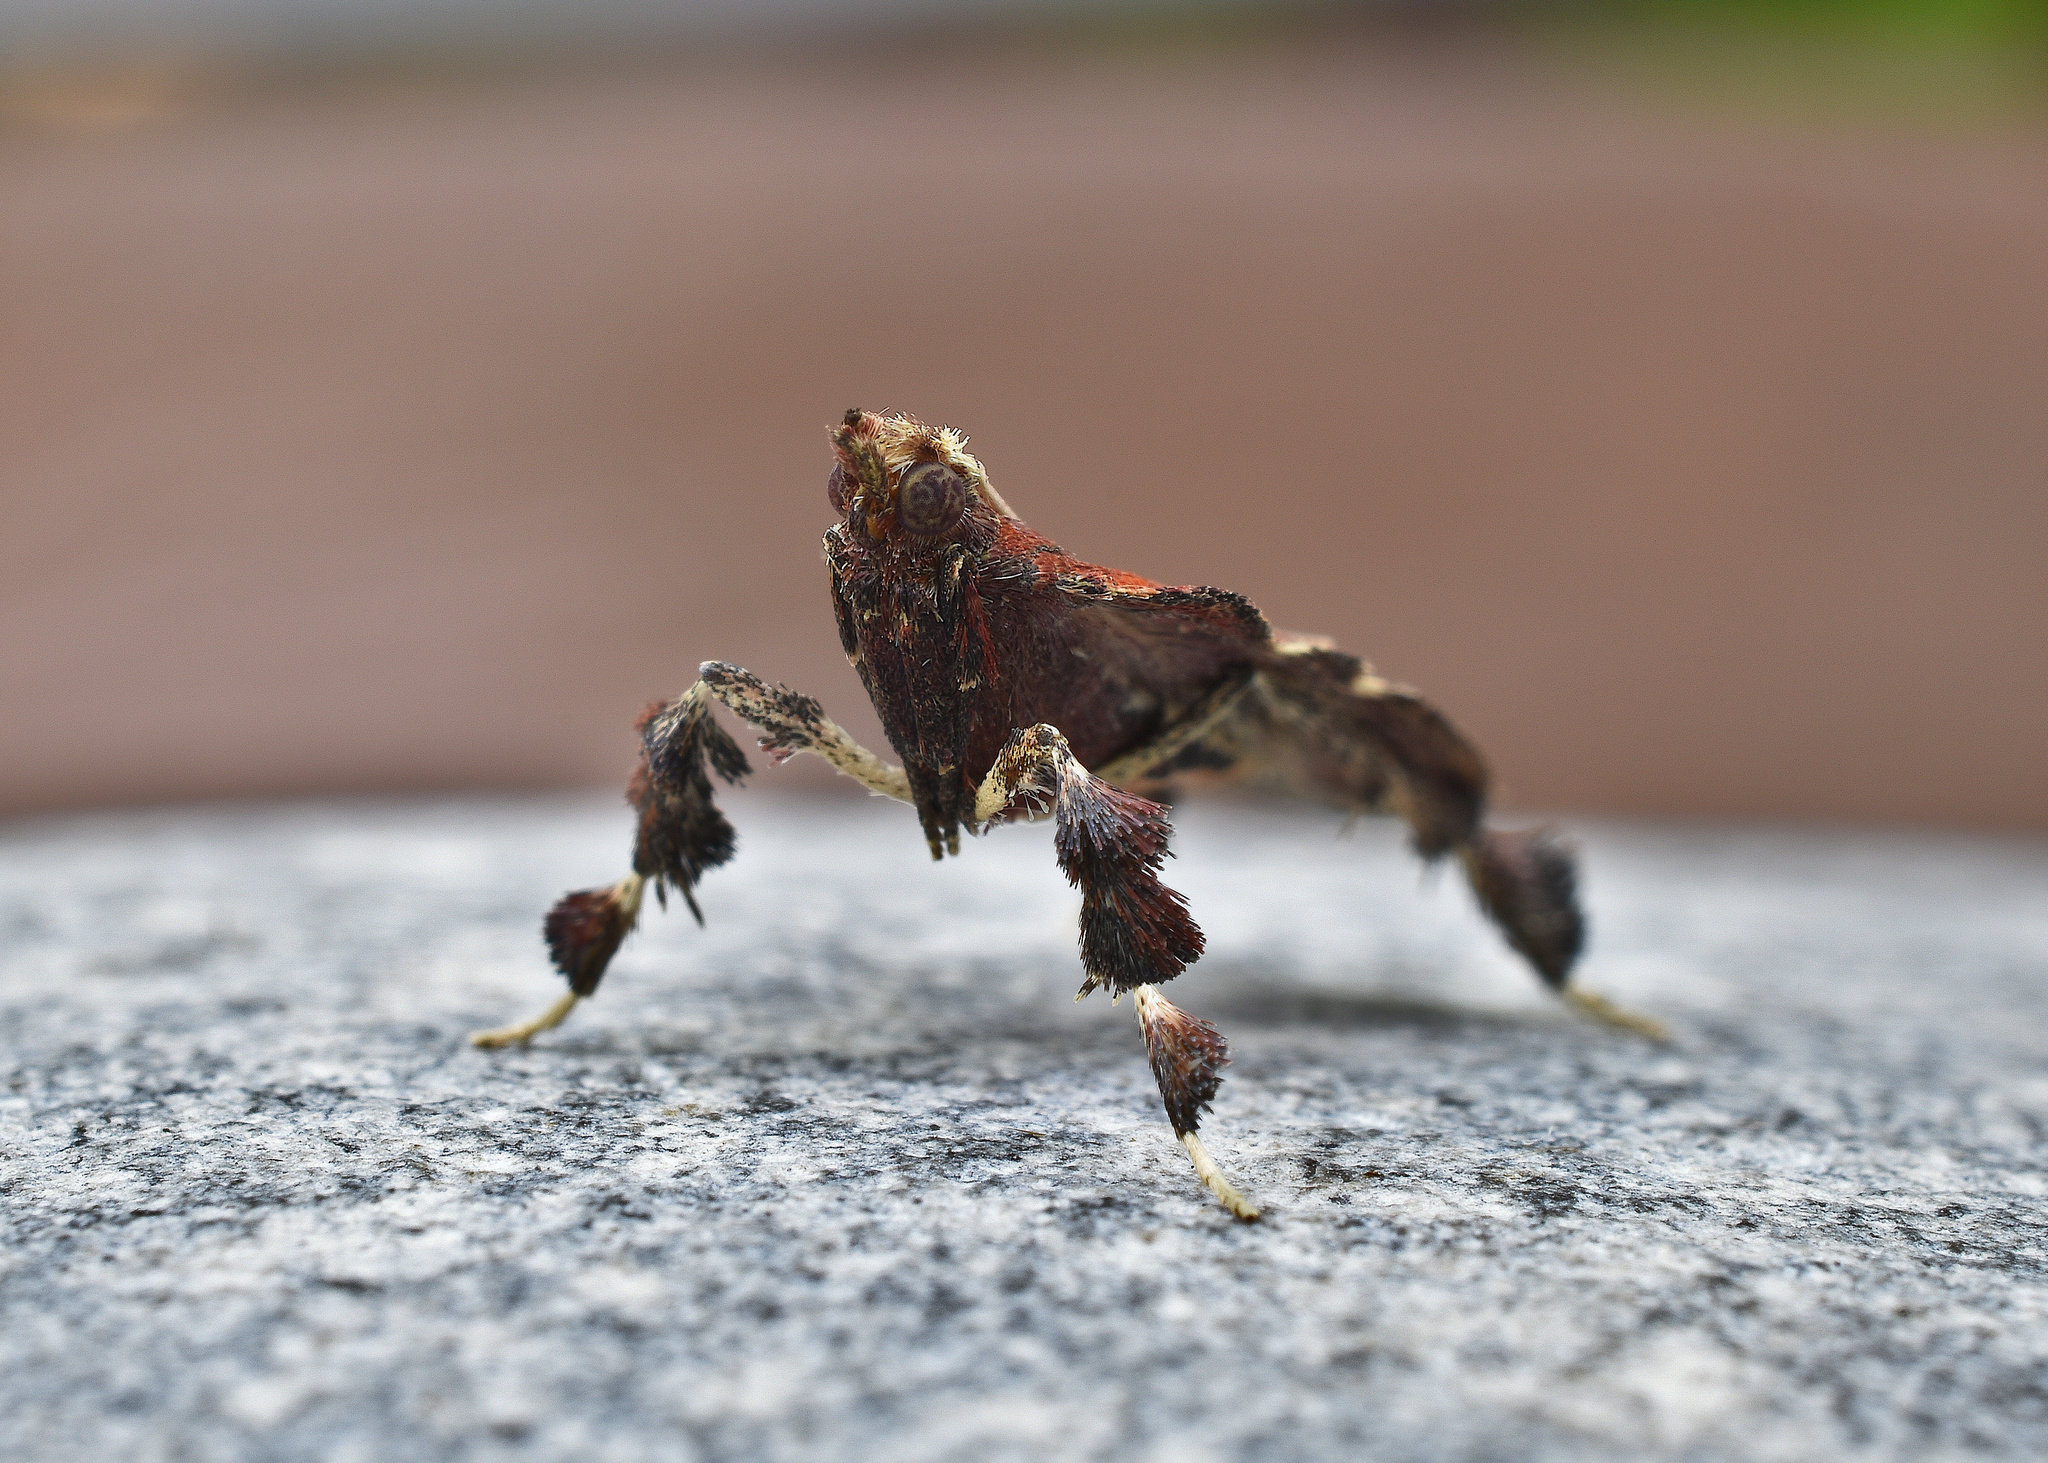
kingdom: Animalia
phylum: Arthropoda
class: Insecta
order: Lepidoptera
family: Pyralidae
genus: Galasa
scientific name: Galasa nigrinodis
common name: Boxwood leaftier moth
